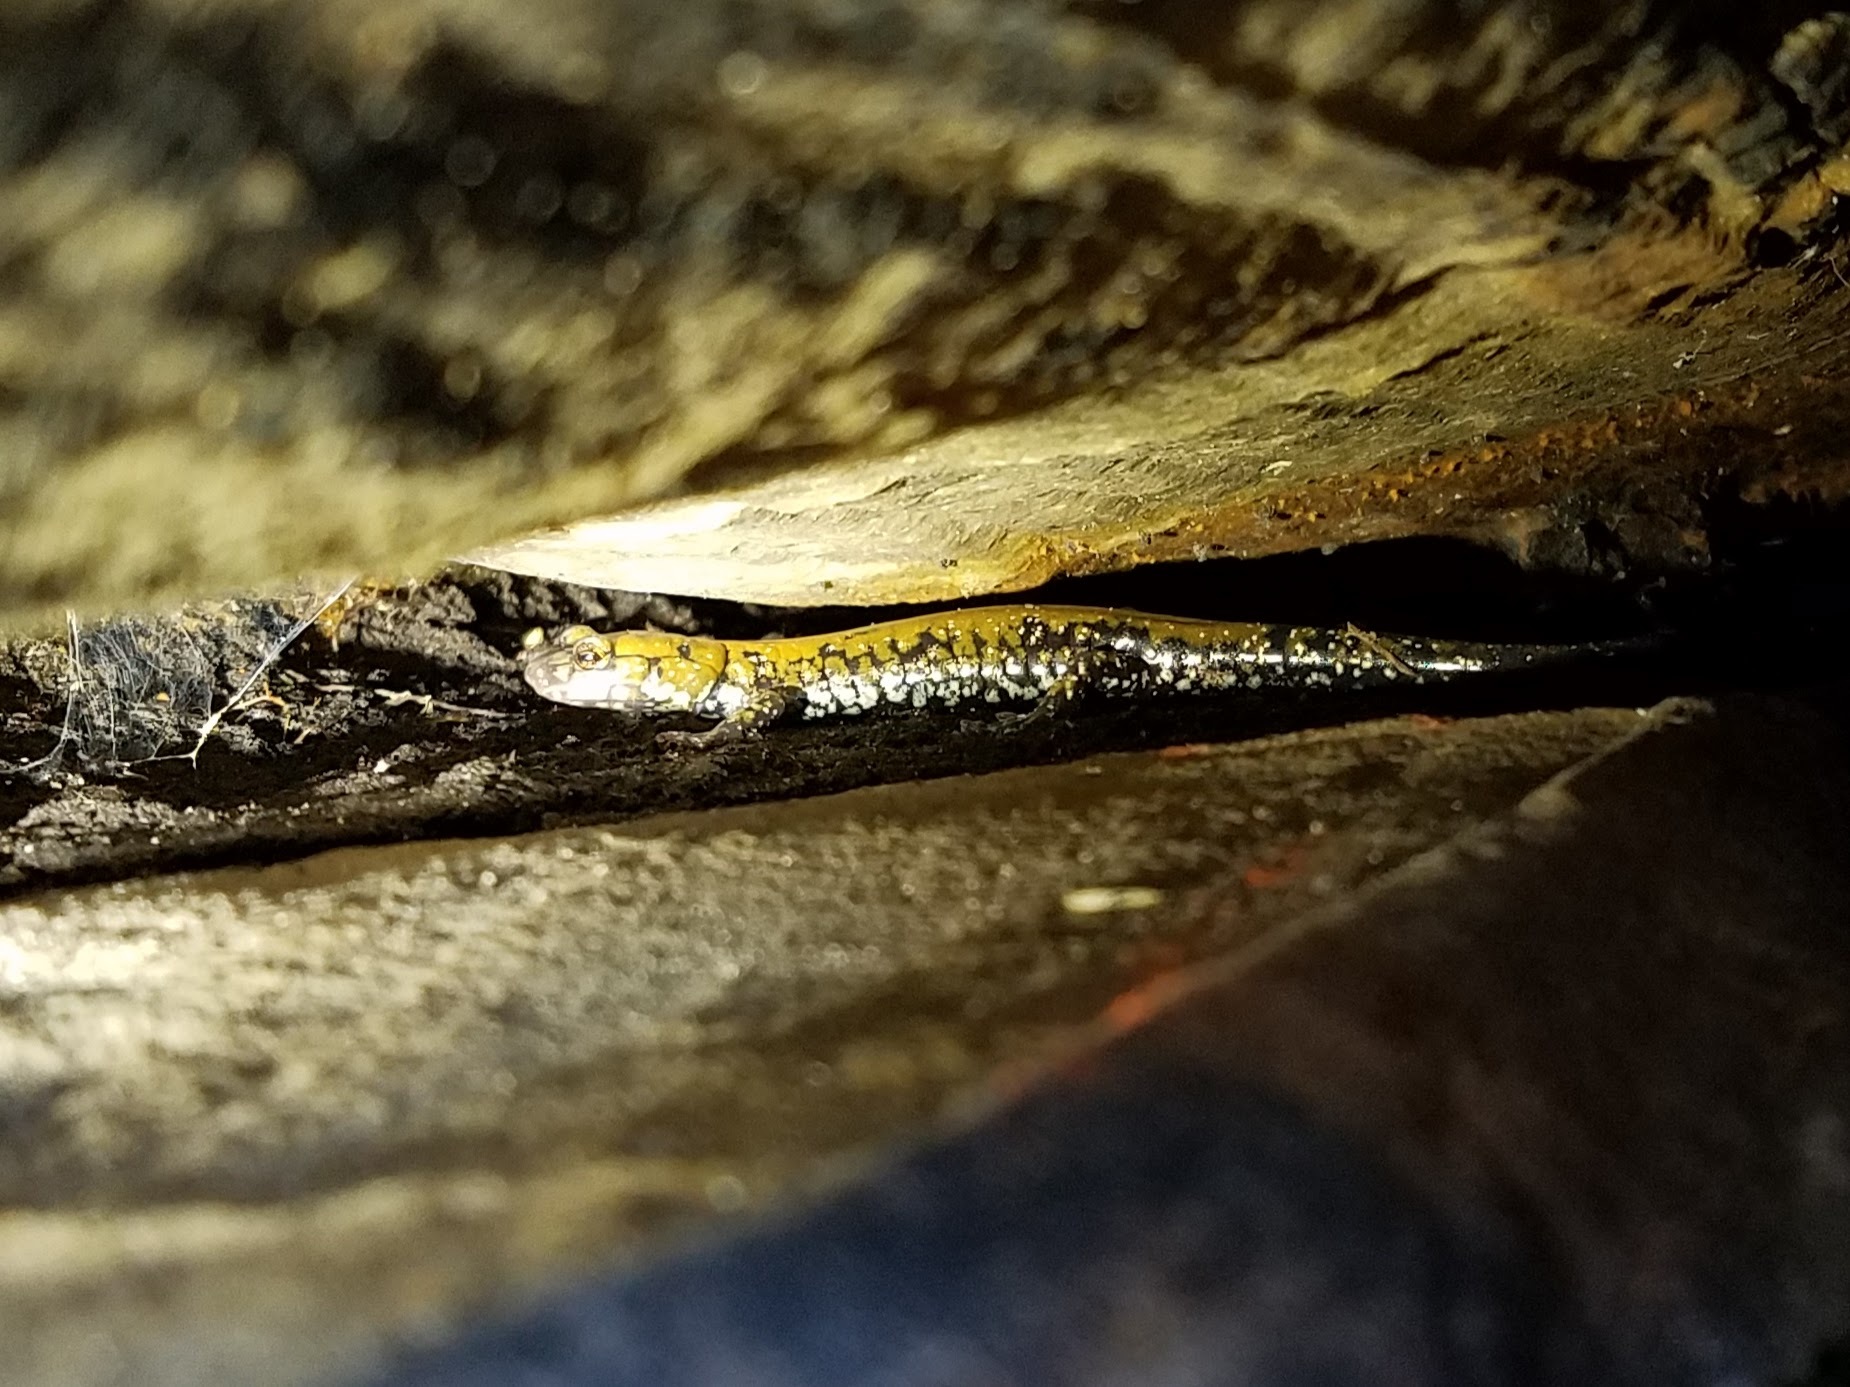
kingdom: Animalia
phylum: Chordata
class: Amphibia
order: Caudata
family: Plethodontidae
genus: Plethodon
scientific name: Plethodon petraeus
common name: Pigeon mountain salamander
